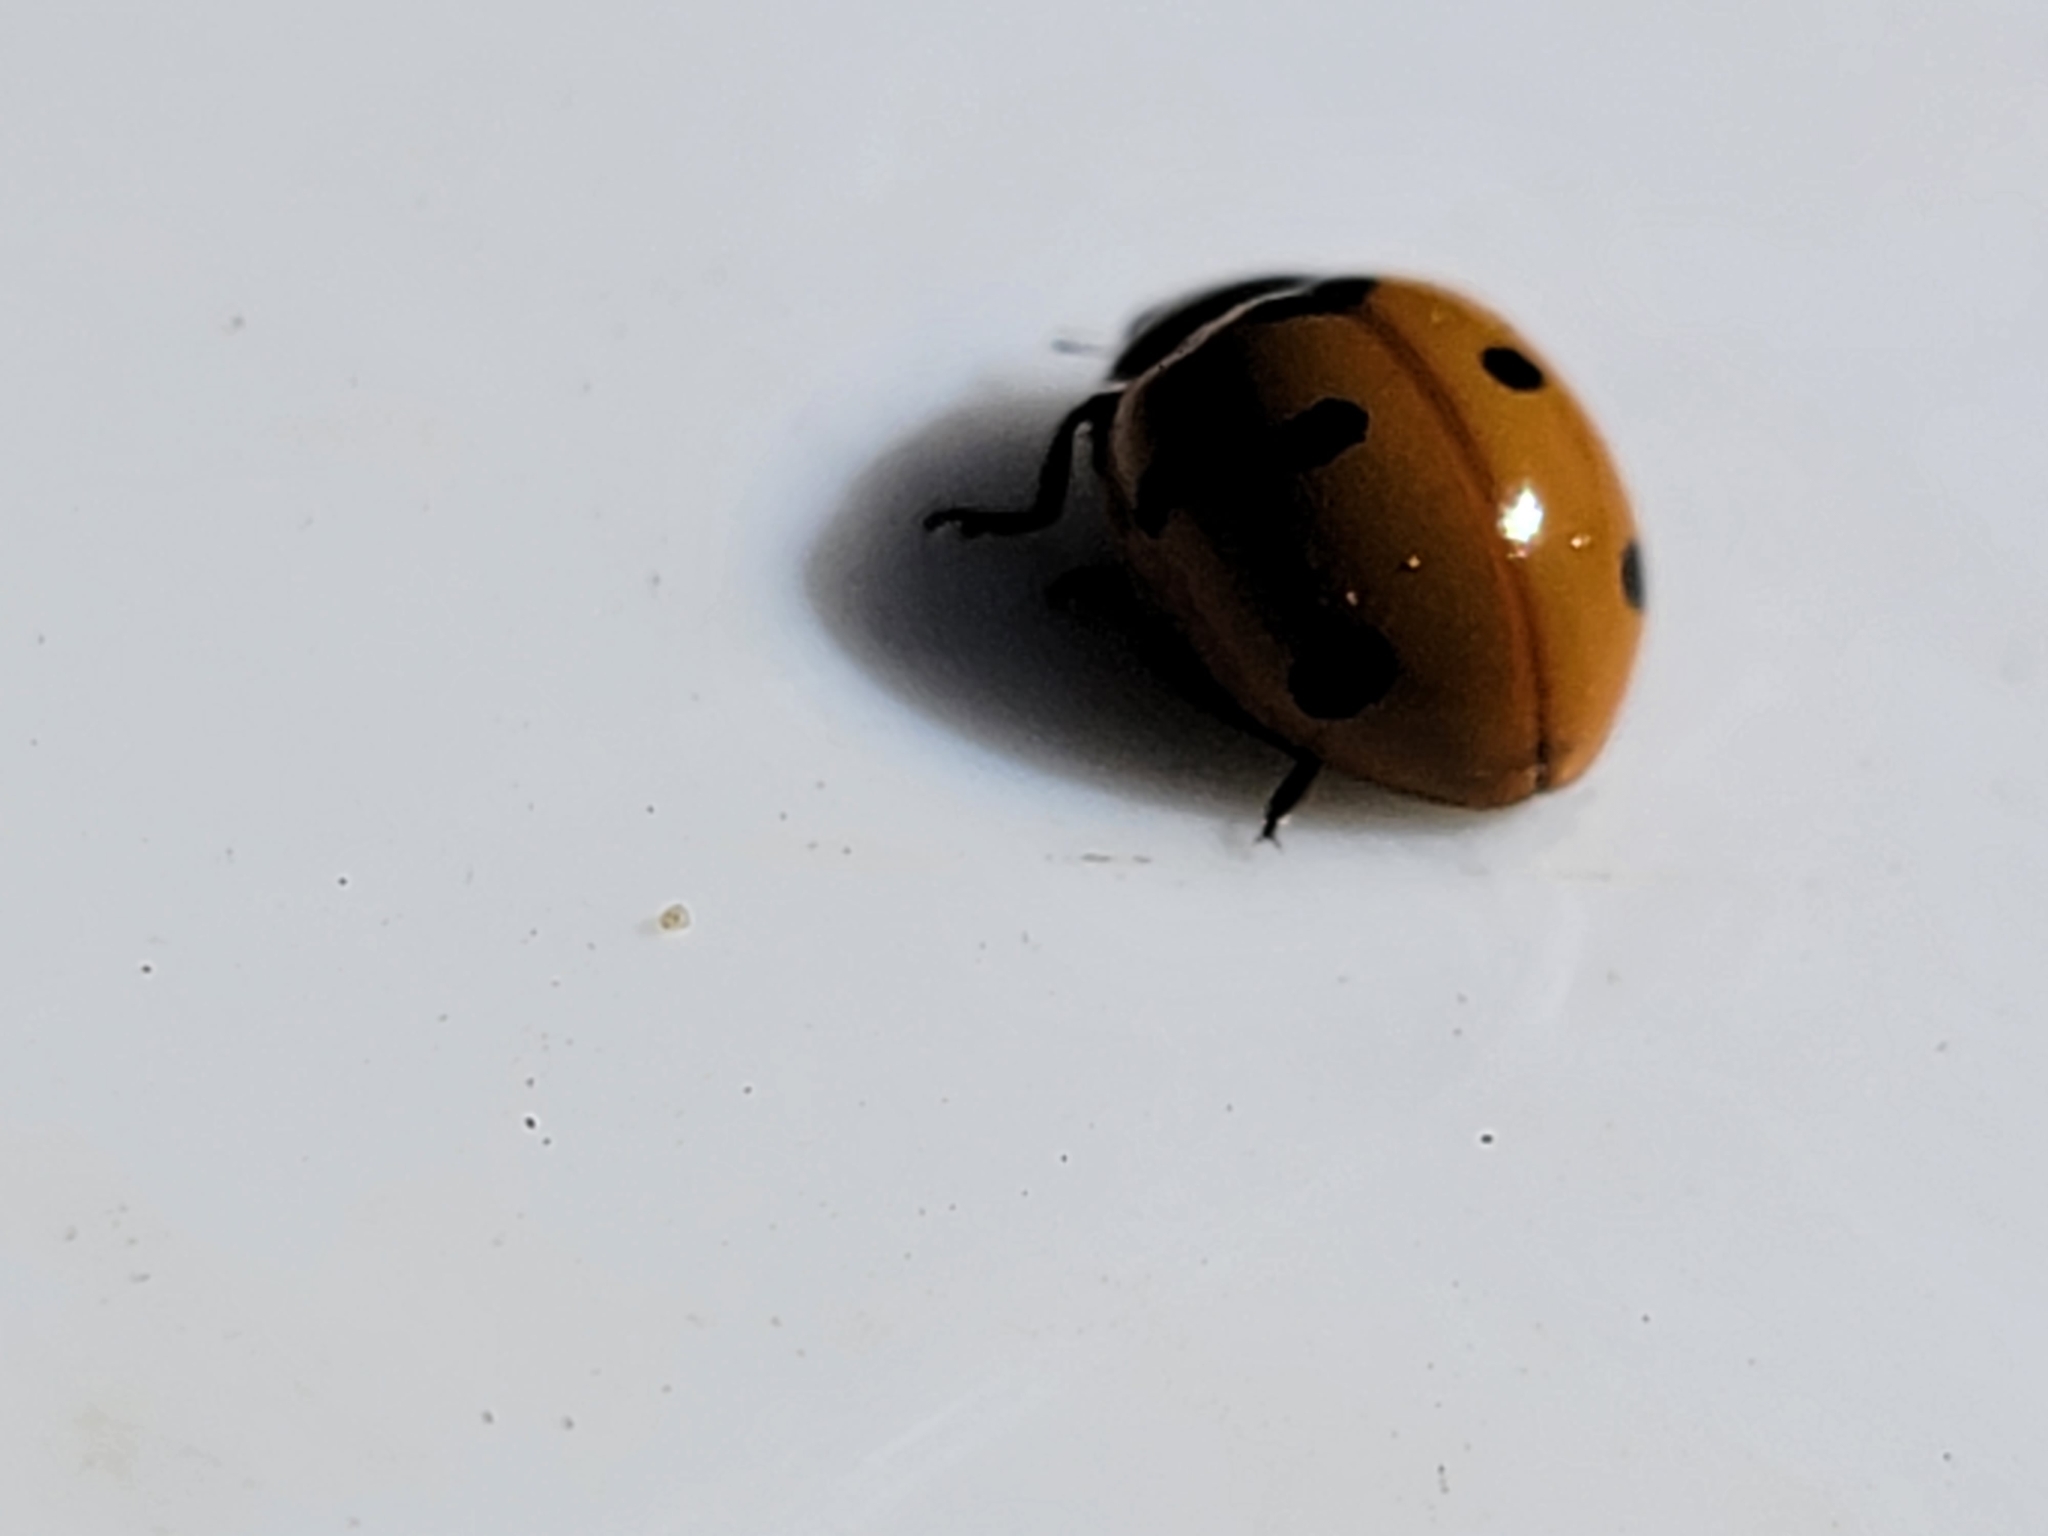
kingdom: Animalia
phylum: Arthropoda
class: Insecta
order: Coleoptera
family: Coccinellidae
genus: Coccinella
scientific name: Coccinella septempunctata
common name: Sevenspotted lady beetle
